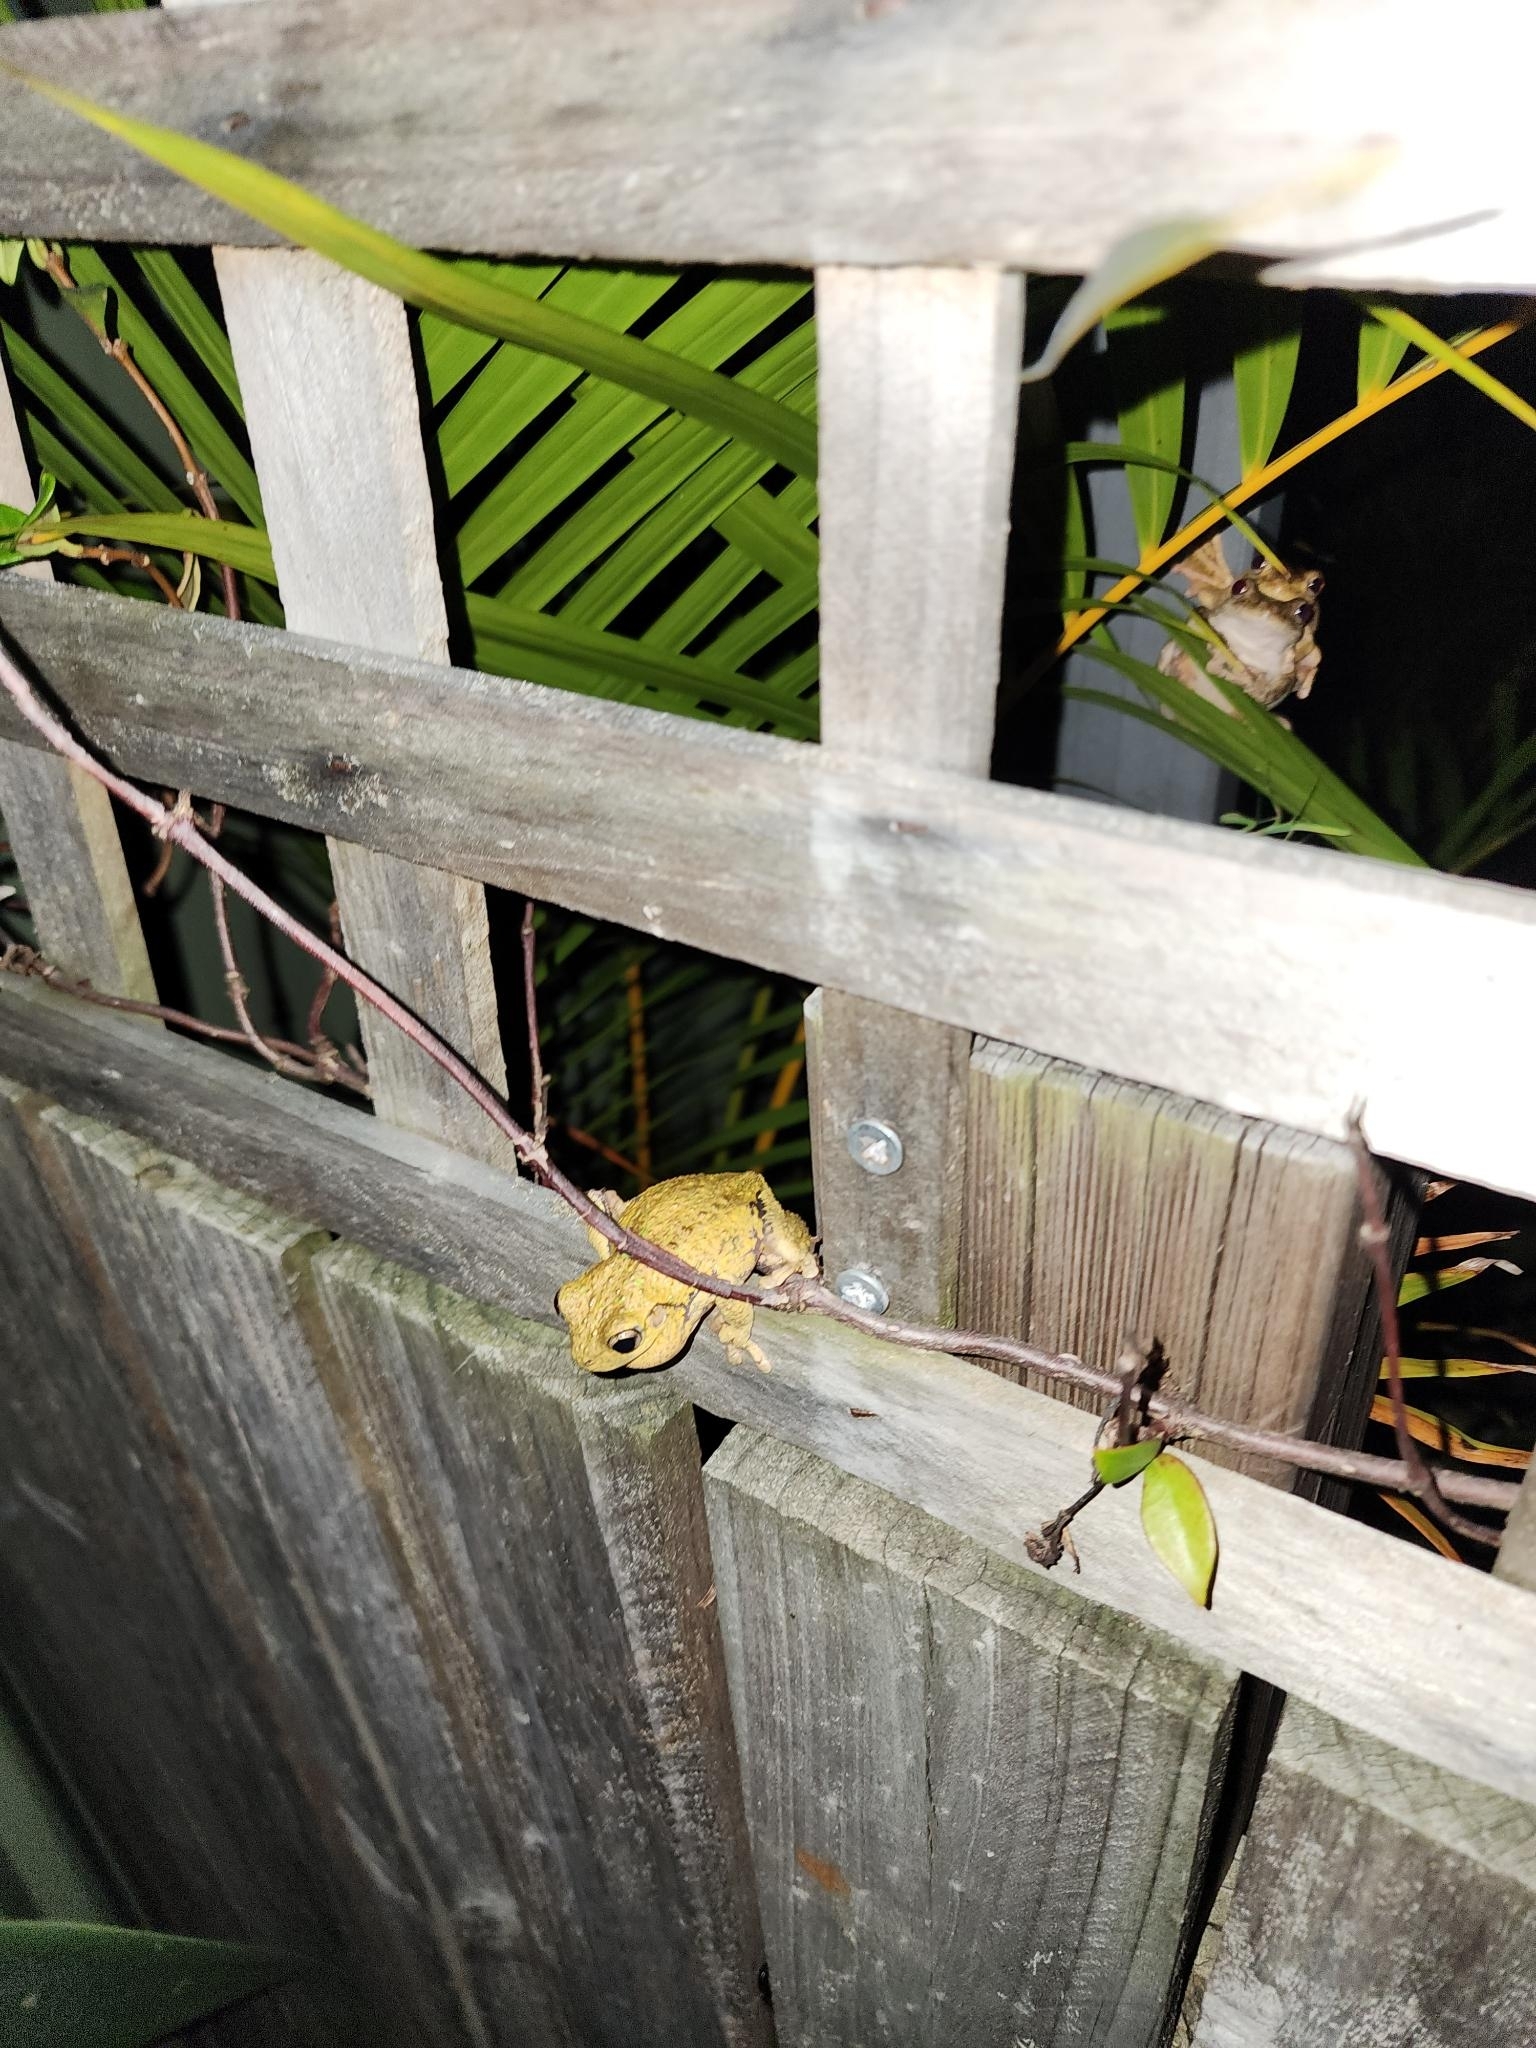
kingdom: Animalia
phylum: Chordata
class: Amphibia
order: Anura
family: Pelodryadidae
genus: Litoria
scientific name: Litoria peronii
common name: Emerald spotted treefrog
